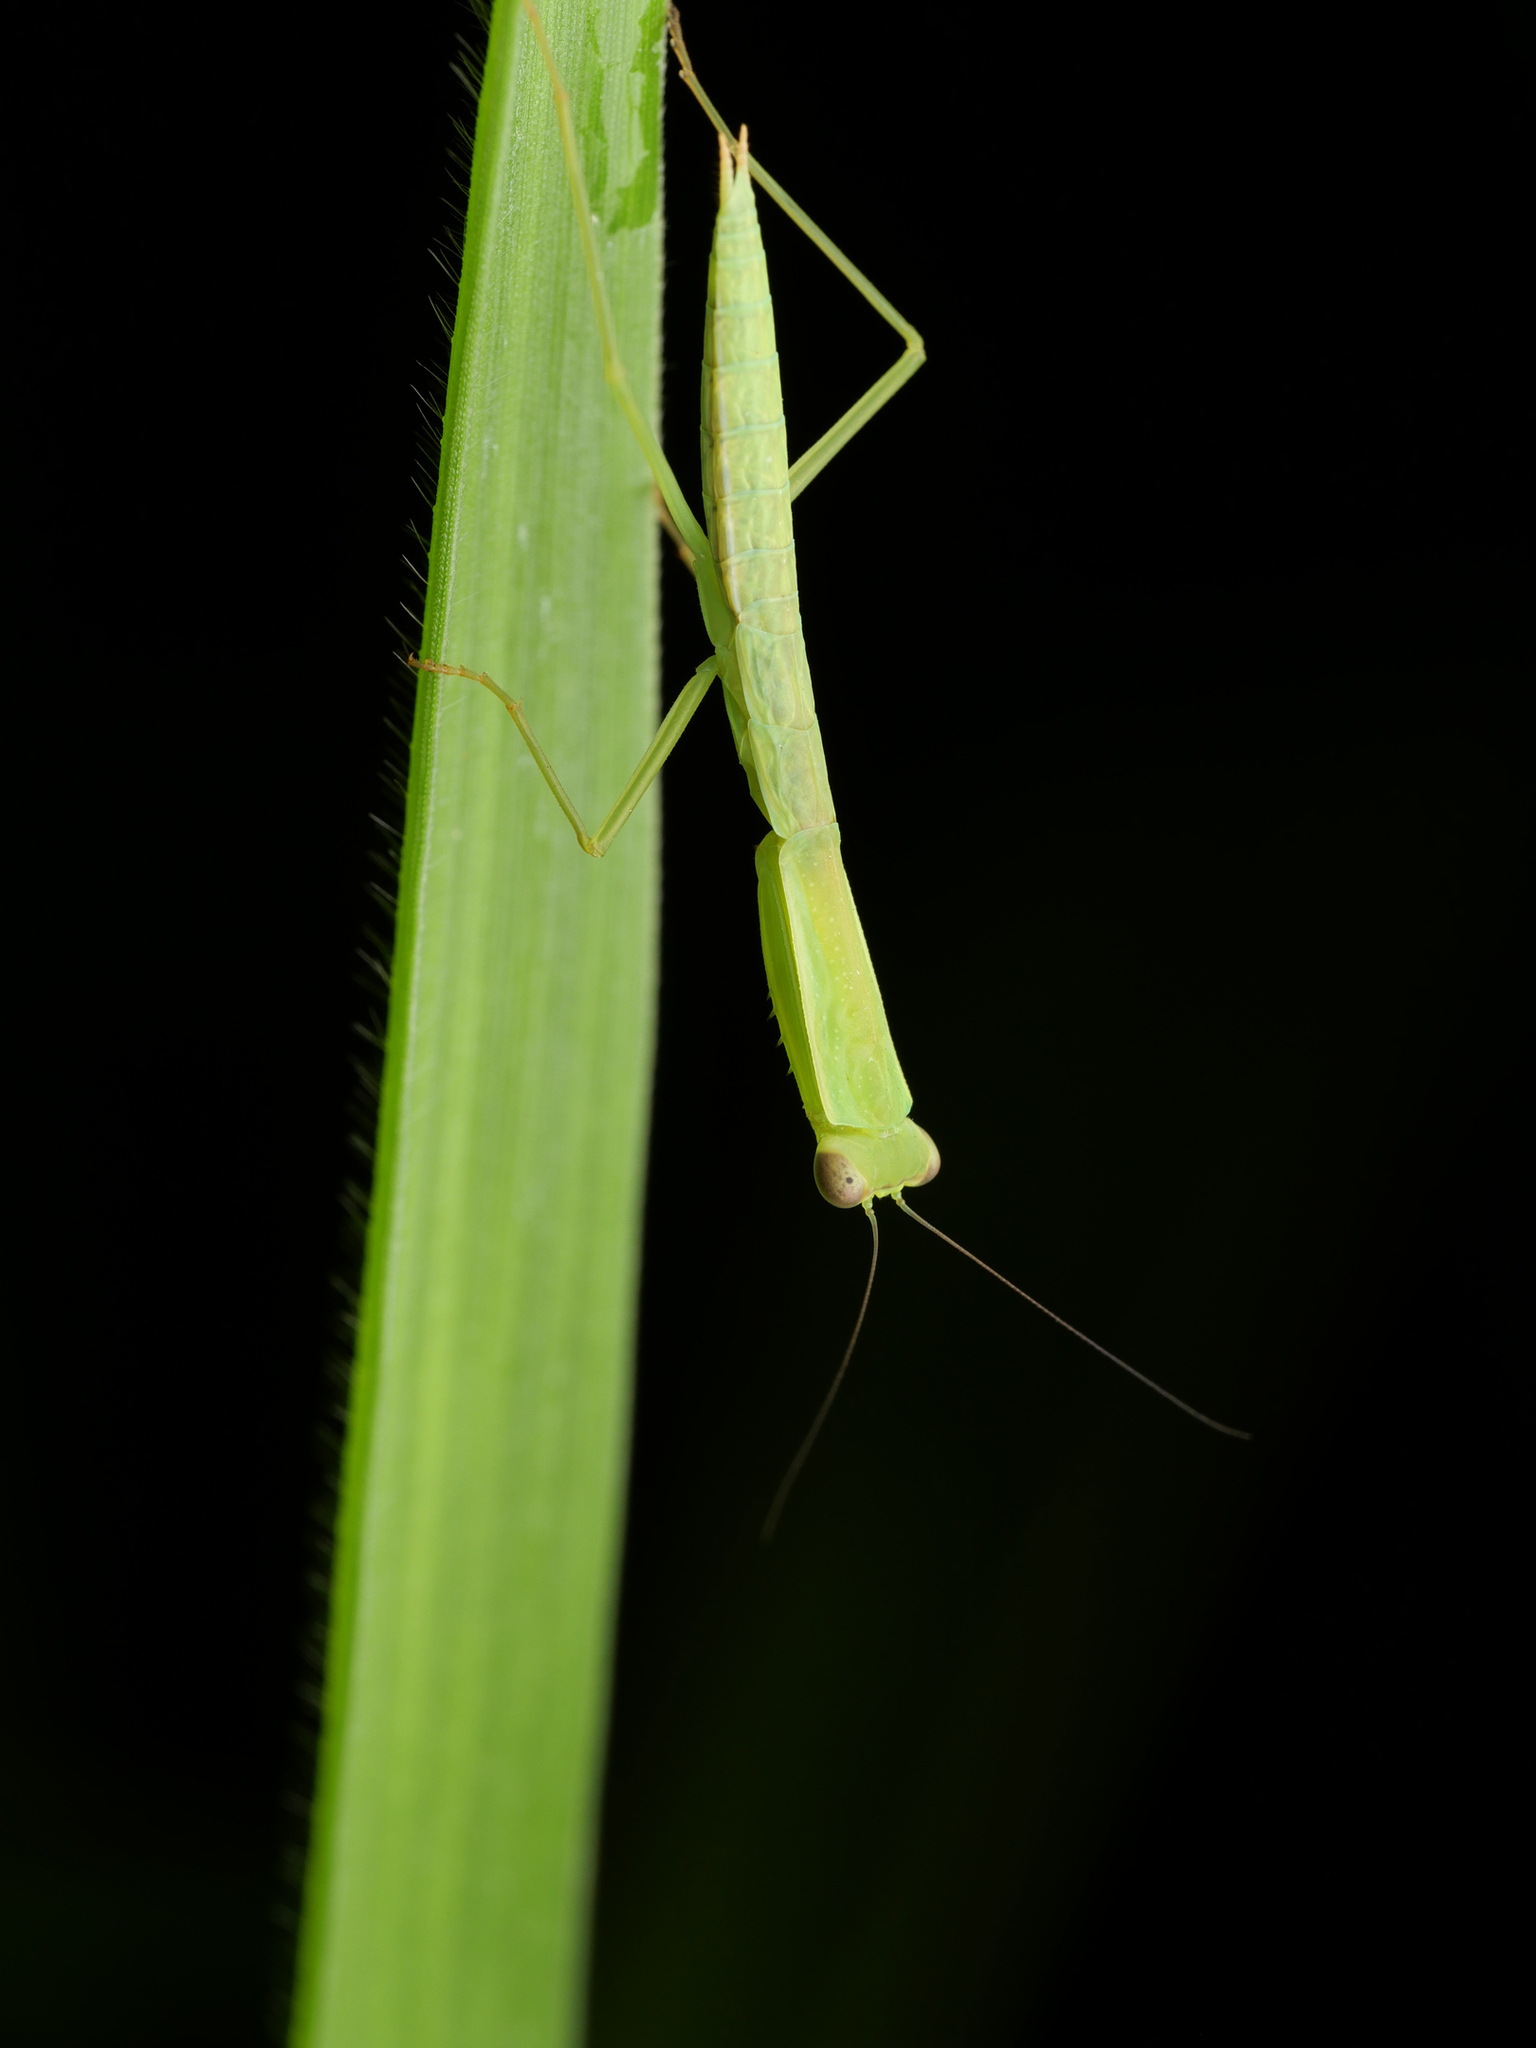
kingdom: Animalia
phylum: Arthropoda
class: Insecta
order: Mantodea
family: Mantidae
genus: Orthodera
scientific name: Orthodera burmeisteri
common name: Mantis
